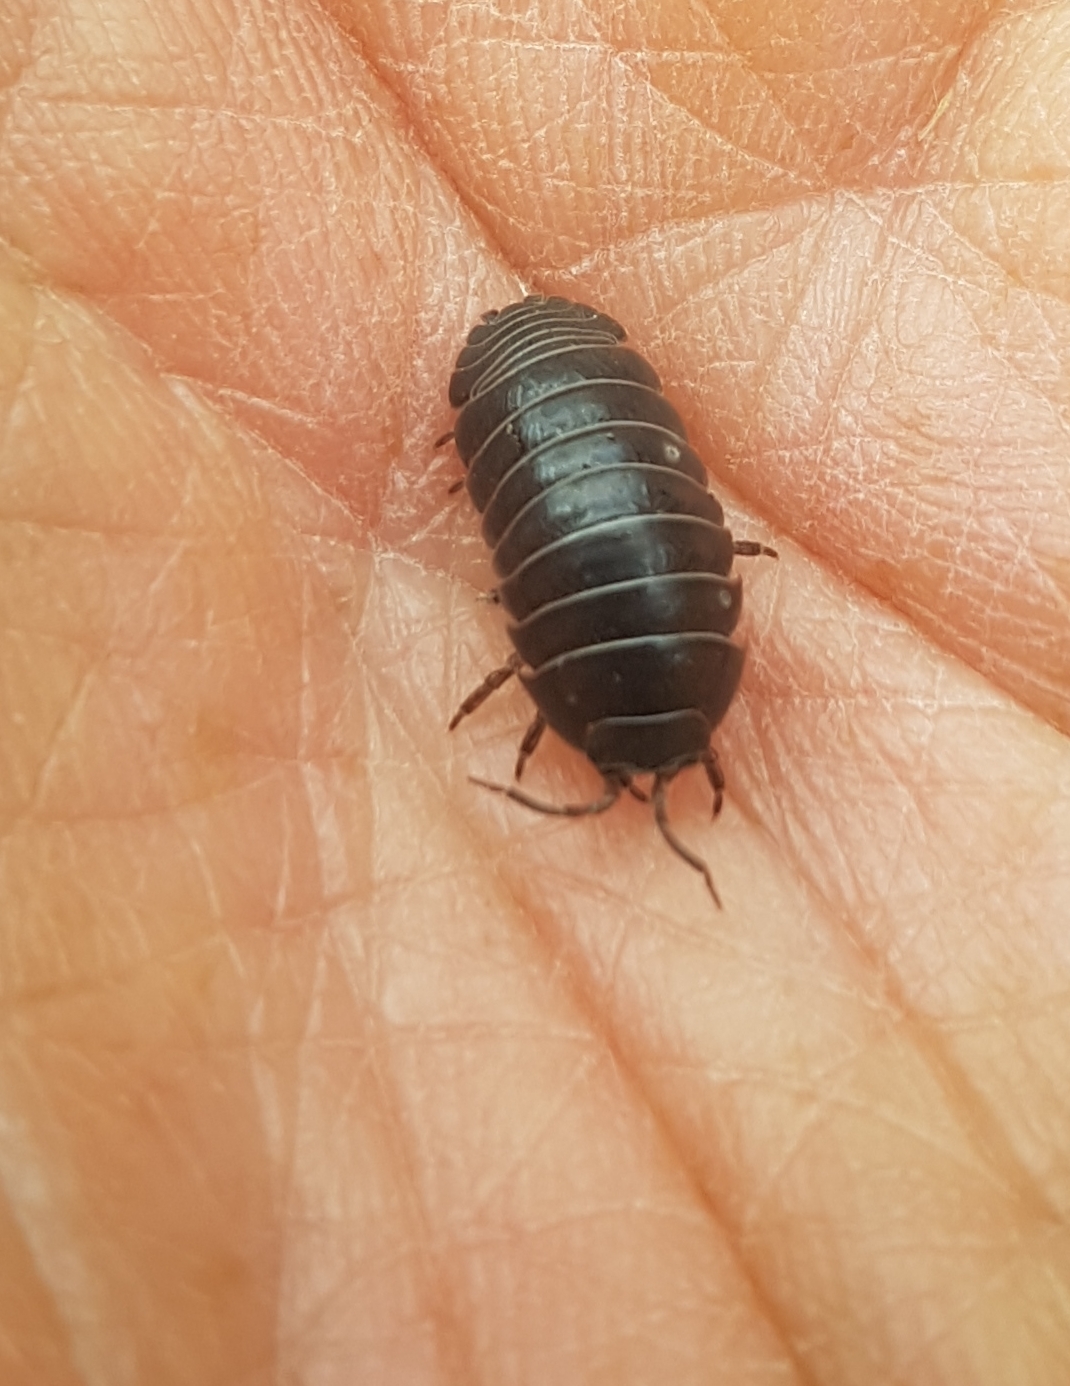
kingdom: Animalia
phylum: Arthropoda
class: Malacostraca
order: Isopoda
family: Armadillidiidae
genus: Armadillidium
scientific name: Armadillidium vulgare
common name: Common pill woodlouse
